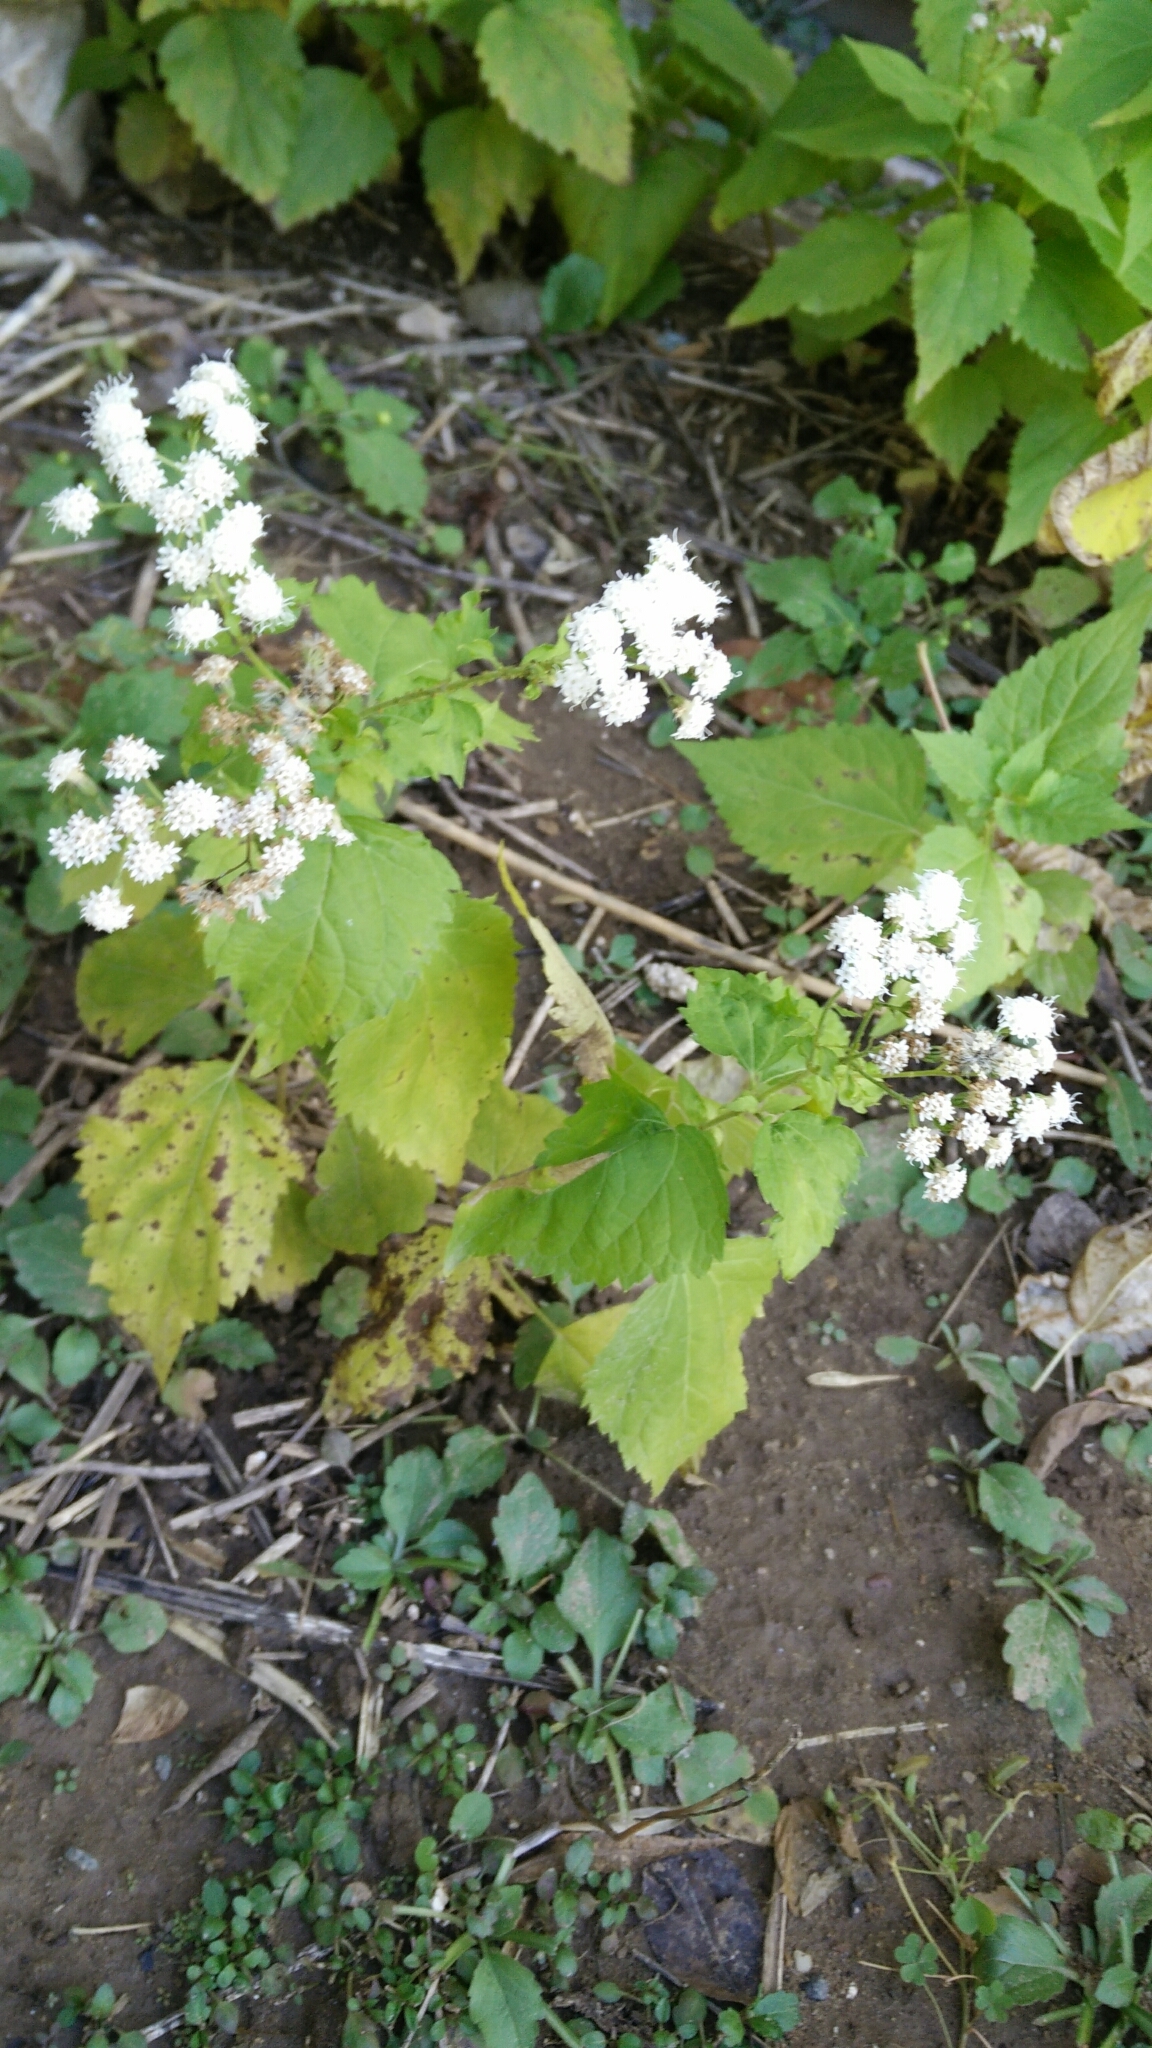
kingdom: Plantae
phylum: Tracheophyta
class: Magnoliopsida
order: Asterales
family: Asteraceae
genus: Ageratina
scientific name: Ageratina altissima
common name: White snakeroot
